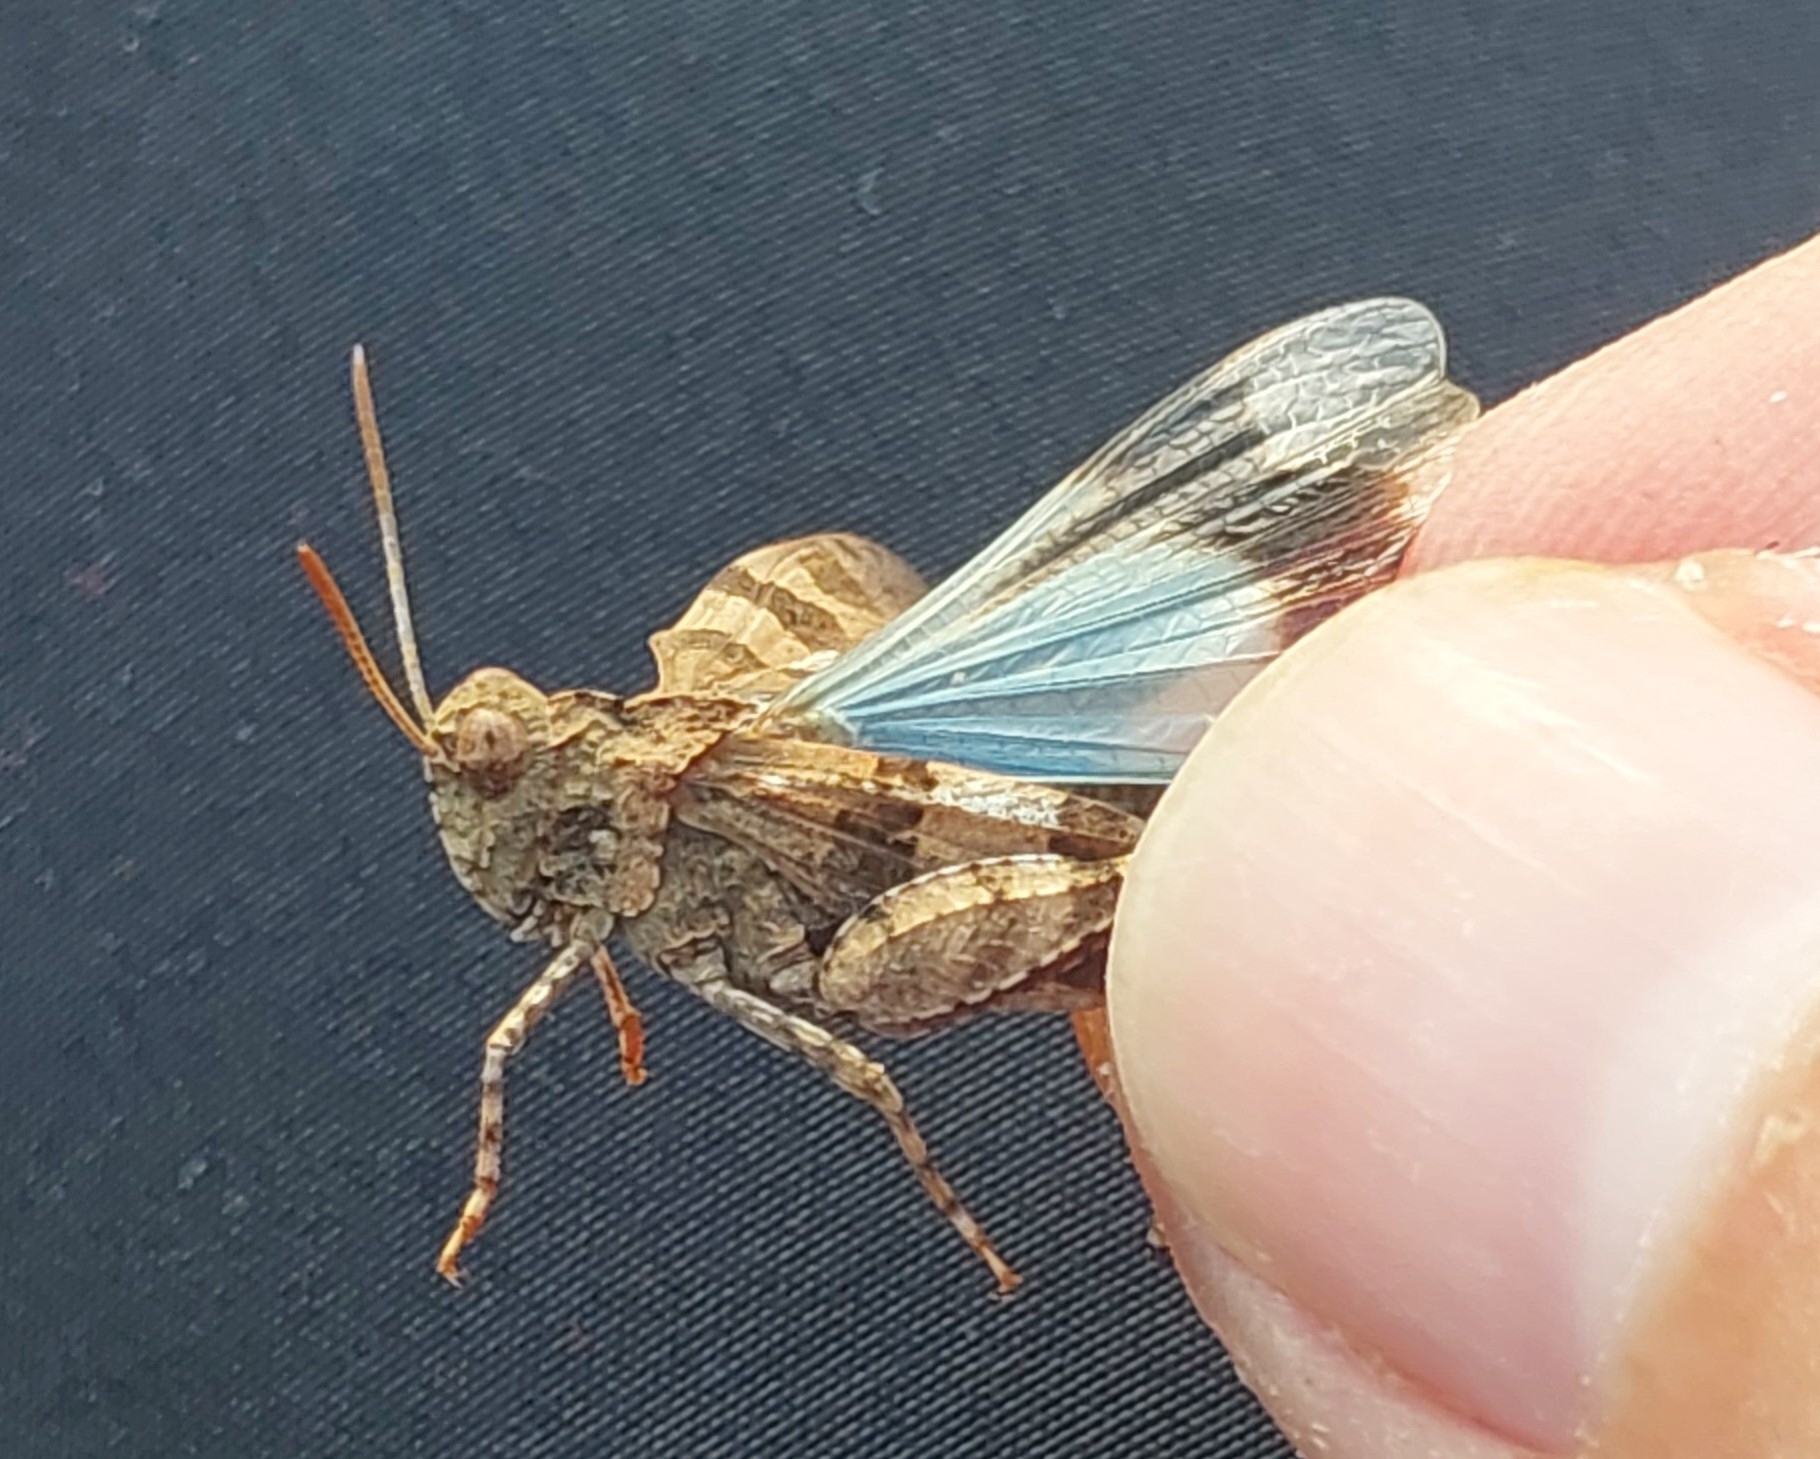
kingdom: Animalia
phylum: Arthropoda
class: Insecta
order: Orthoptera
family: Acrididae
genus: Oedipoda
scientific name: Oedipoda caerulescens
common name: Blue-winged grasshopper
